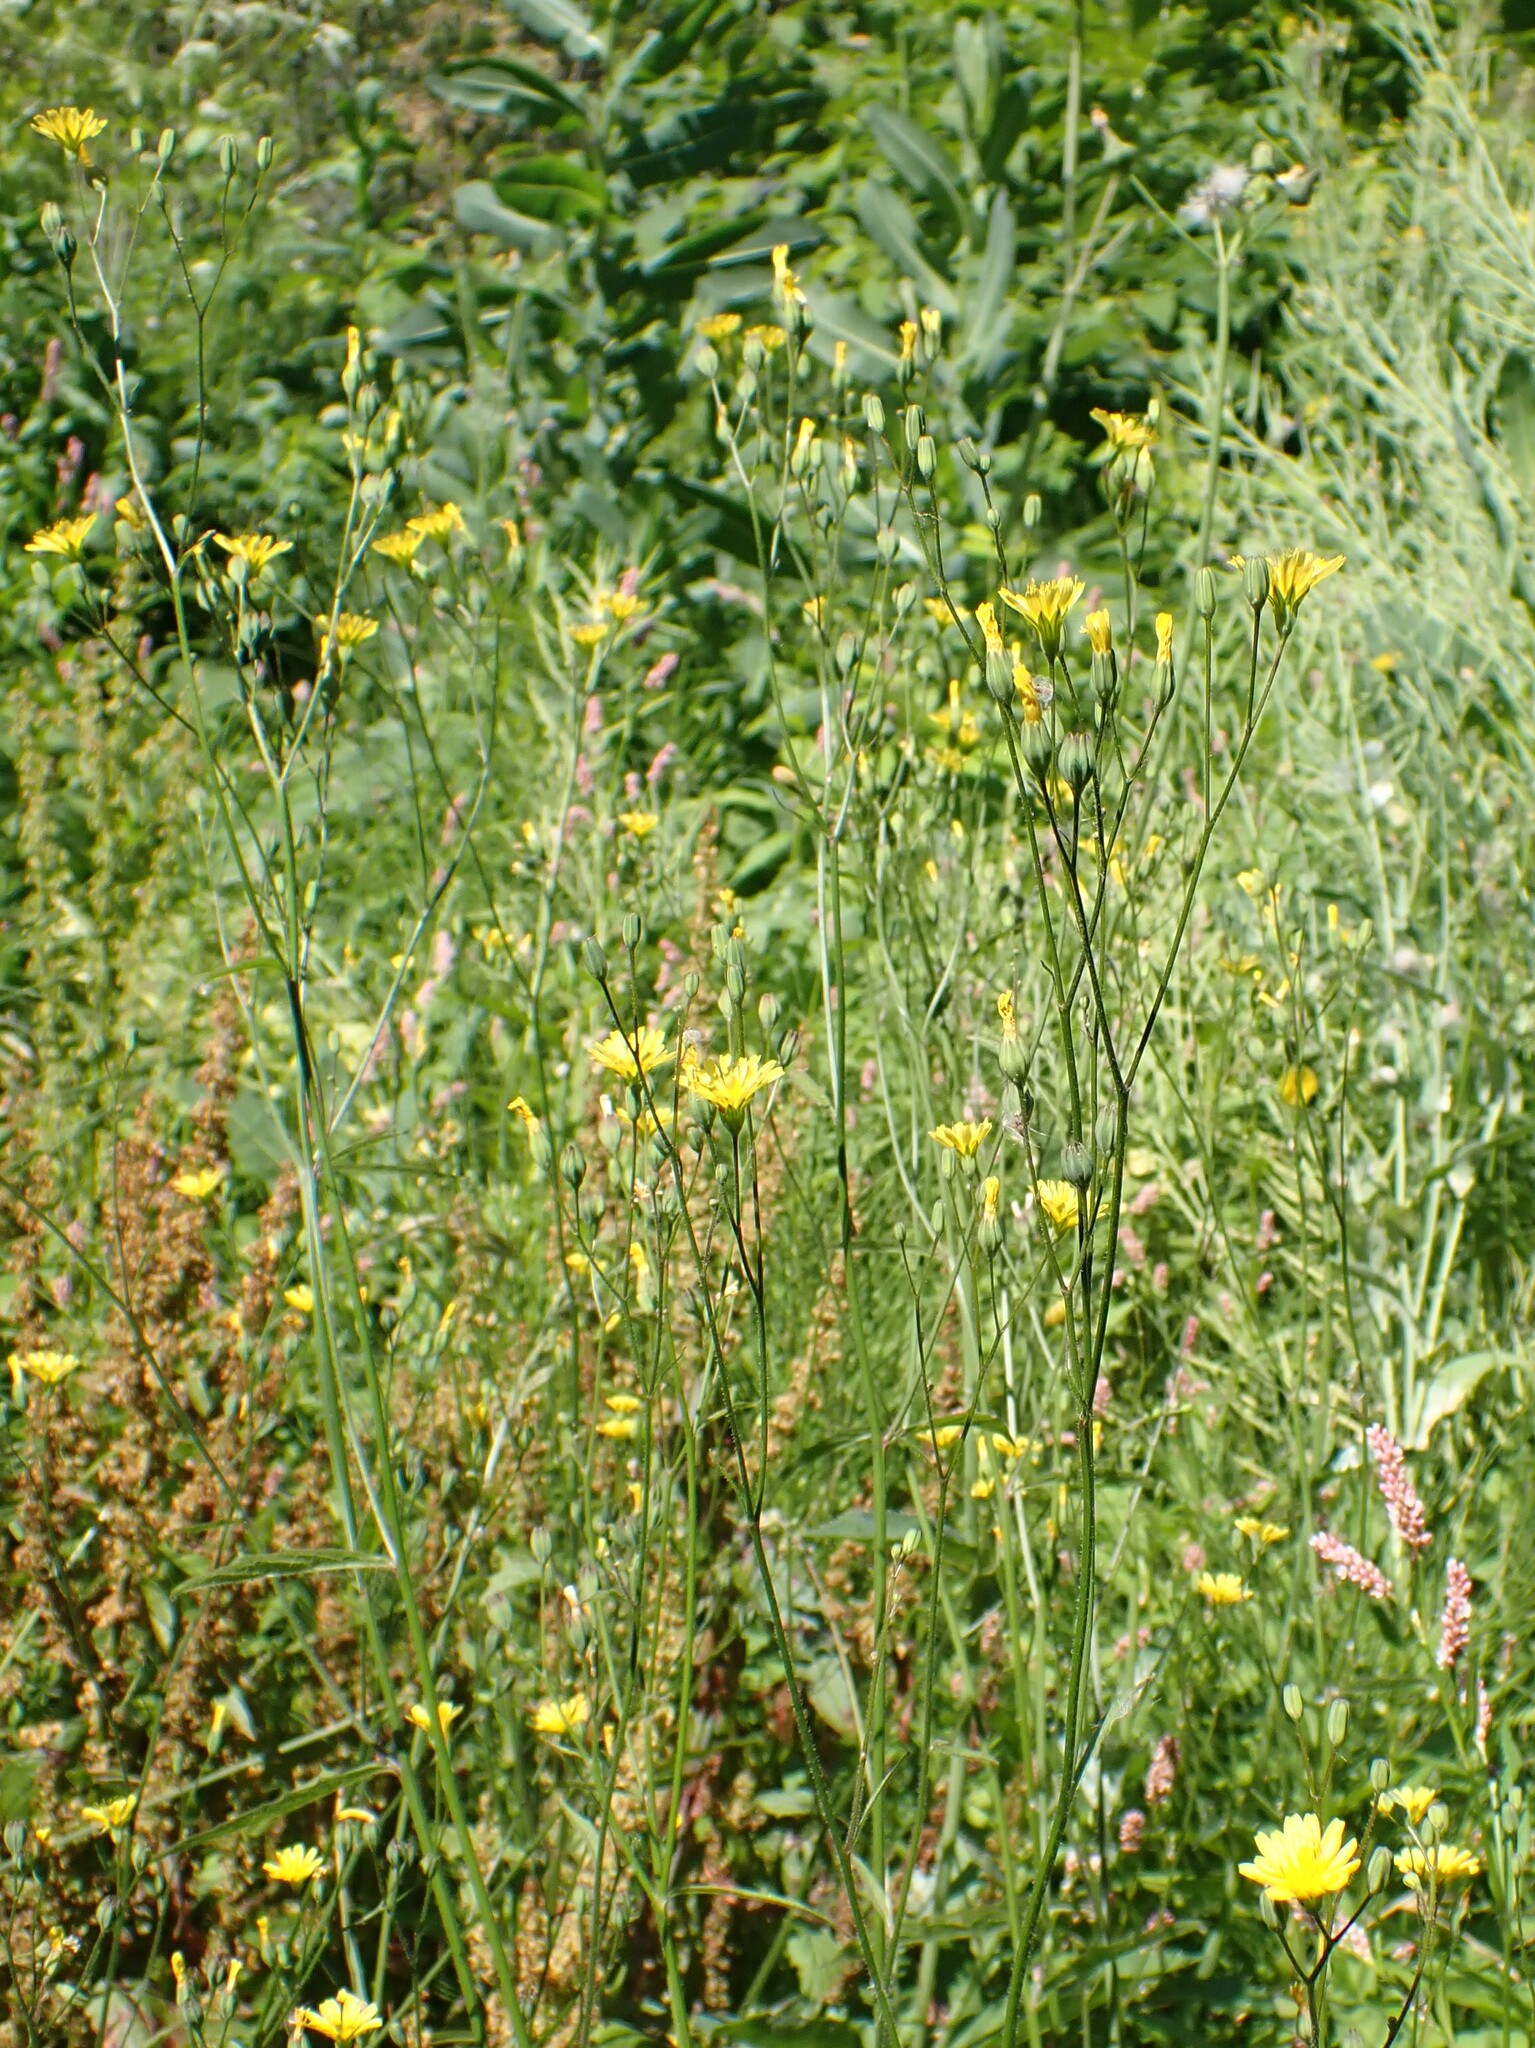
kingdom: Plantae
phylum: Tracheophyta
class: Magnoliopsida
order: Asterales
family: Asteraceae
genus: Lapsana
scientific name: Lapsana communis
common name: Nipplewort
